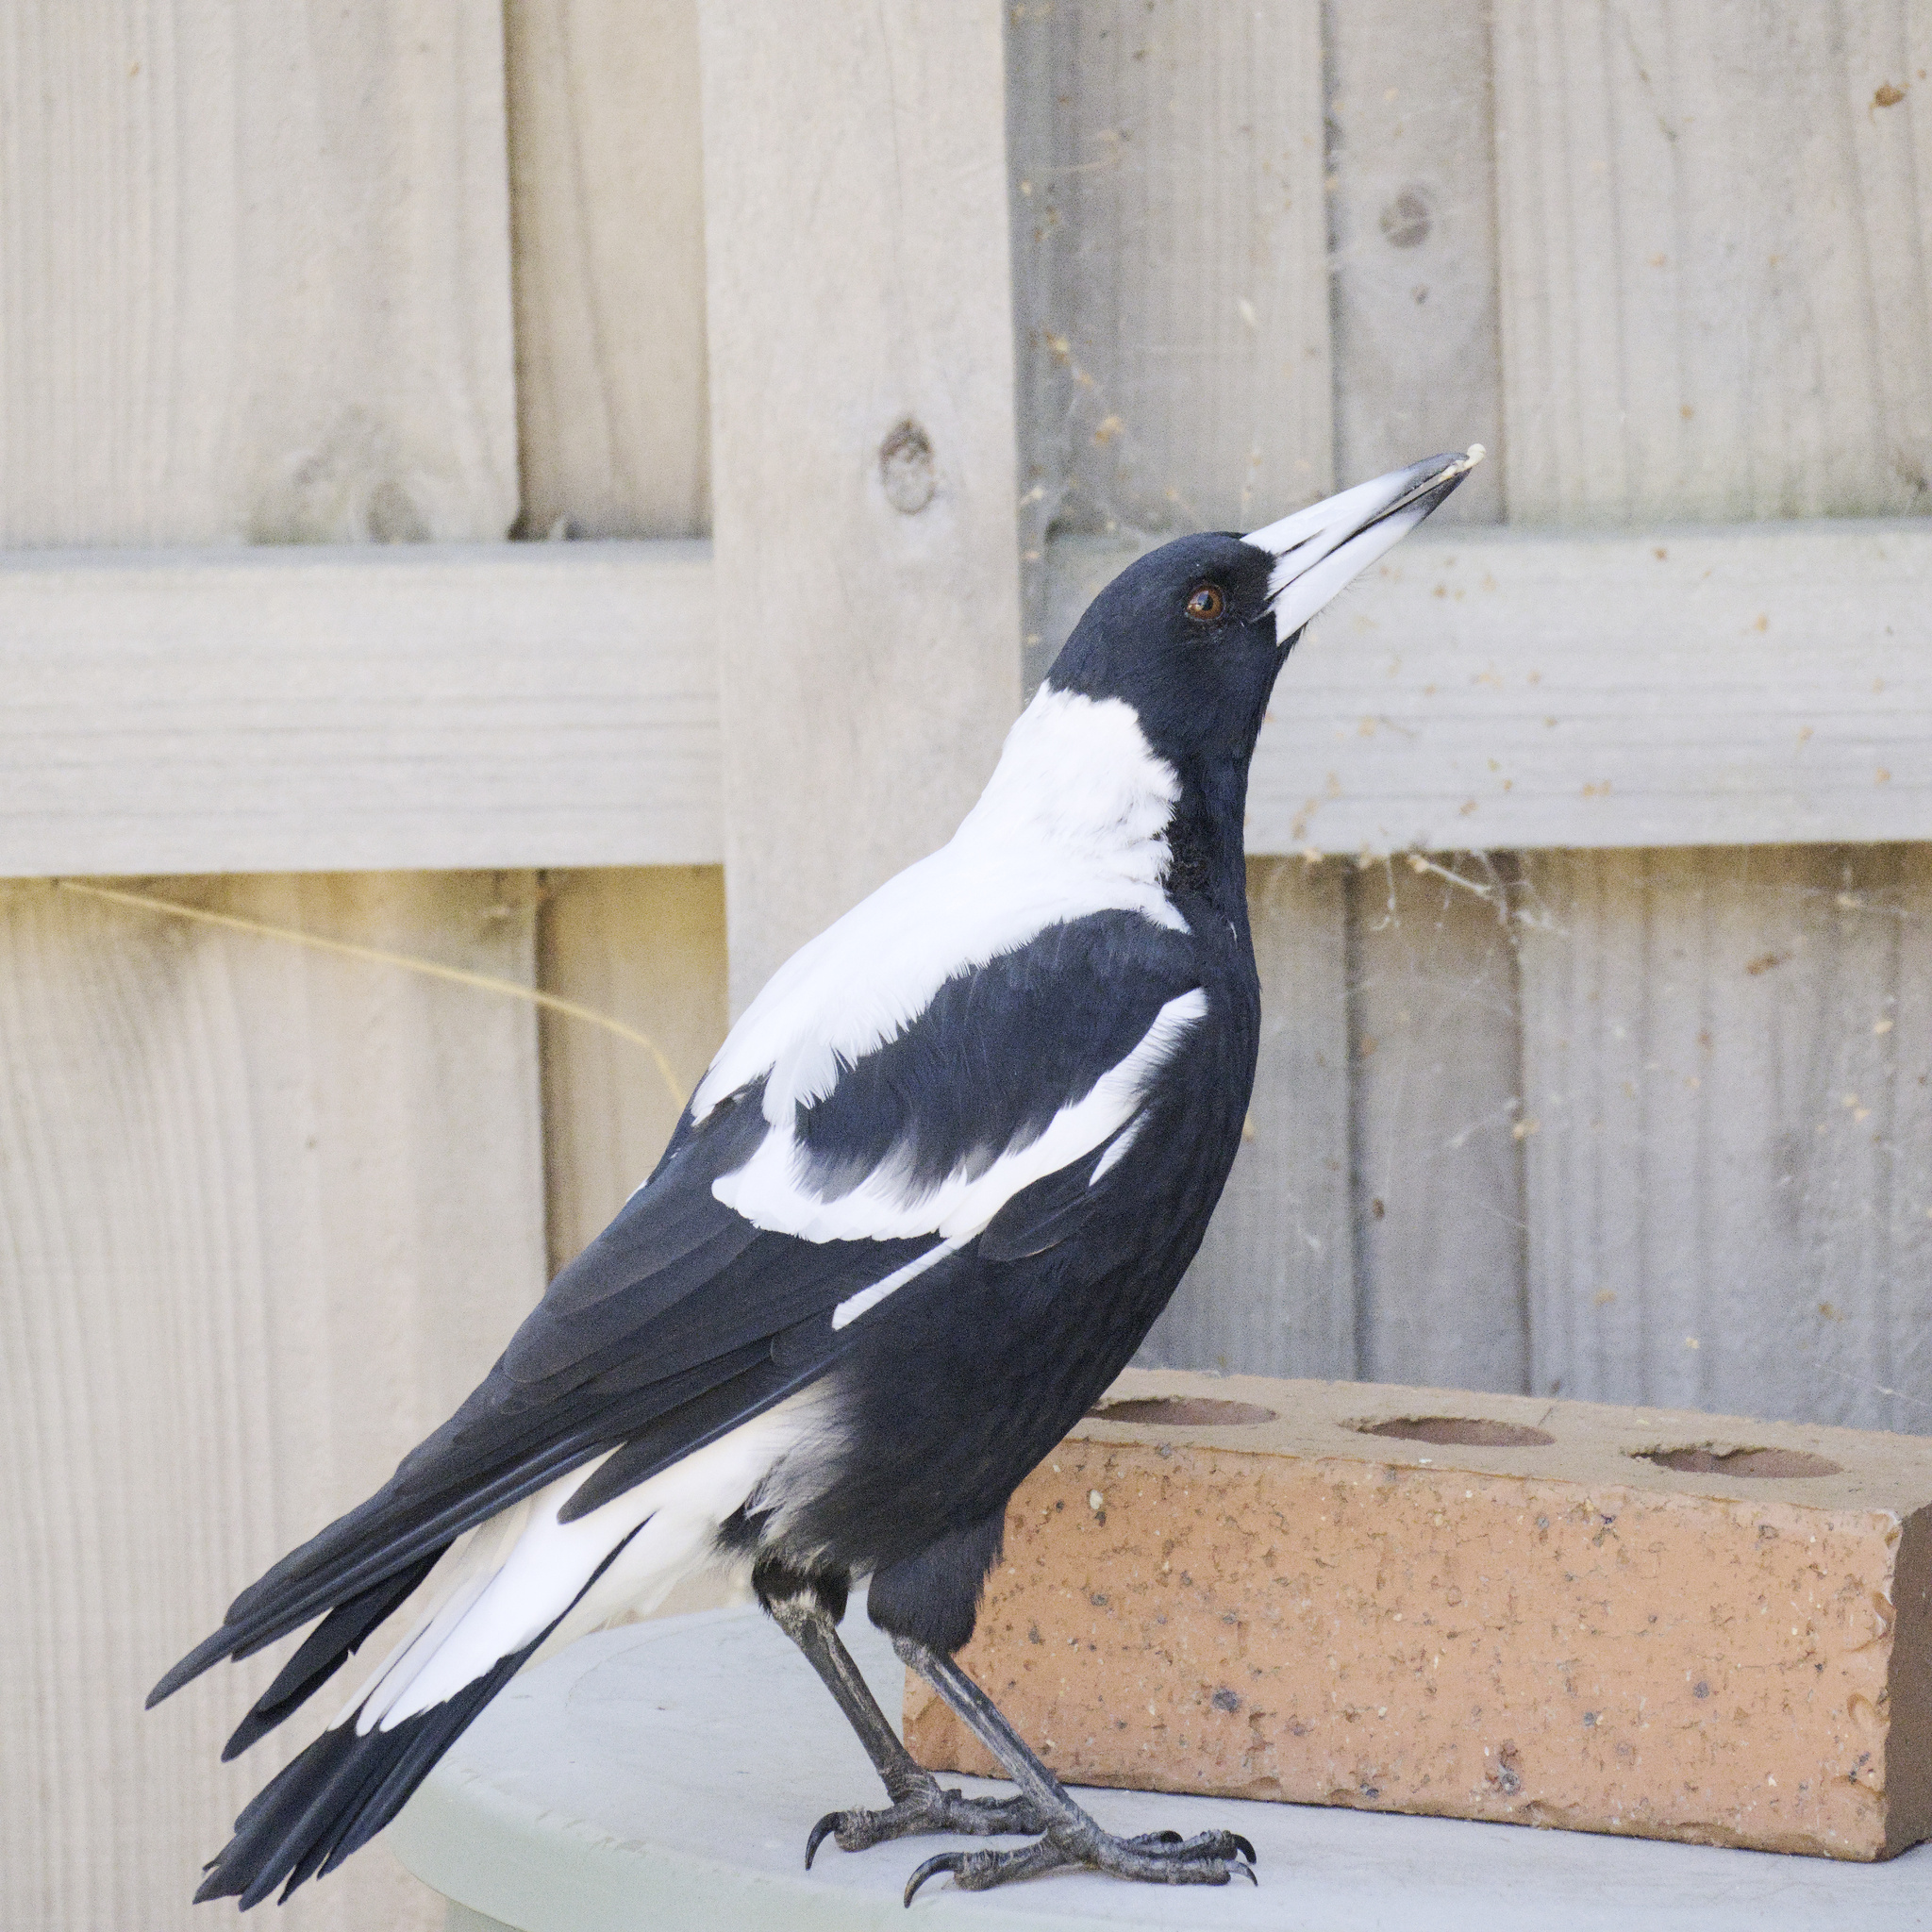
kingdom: Animalia
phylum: Chordata
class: Aves
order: Passeriformes
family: Cracticidae
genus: Gymnorhina
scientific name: Gymnorhina tibicen
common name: Australian magpie
